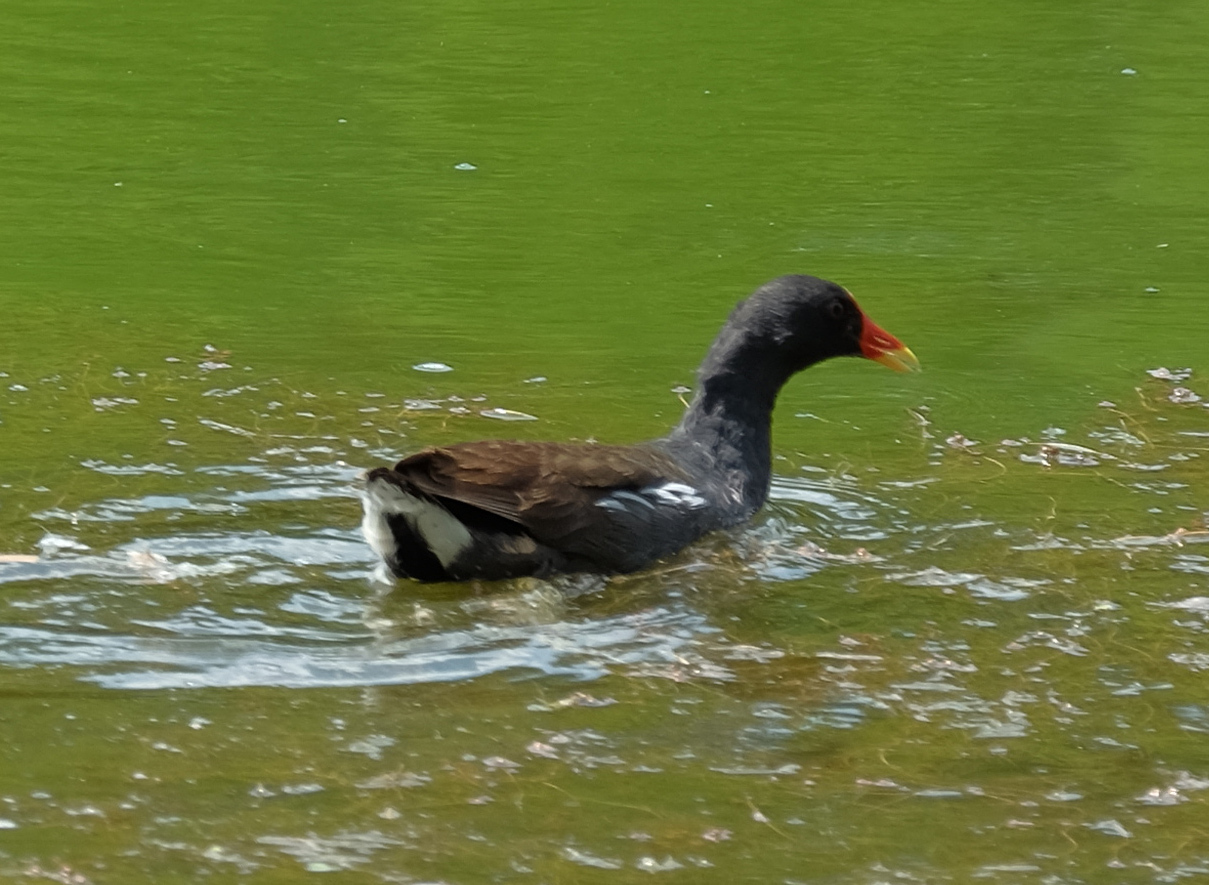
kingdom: Animalia
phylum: Chordata
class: Aves
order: Gruiformes
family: Rallidae
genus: Gallinula
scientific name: Gallinula chloropus
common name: Common moorhen
